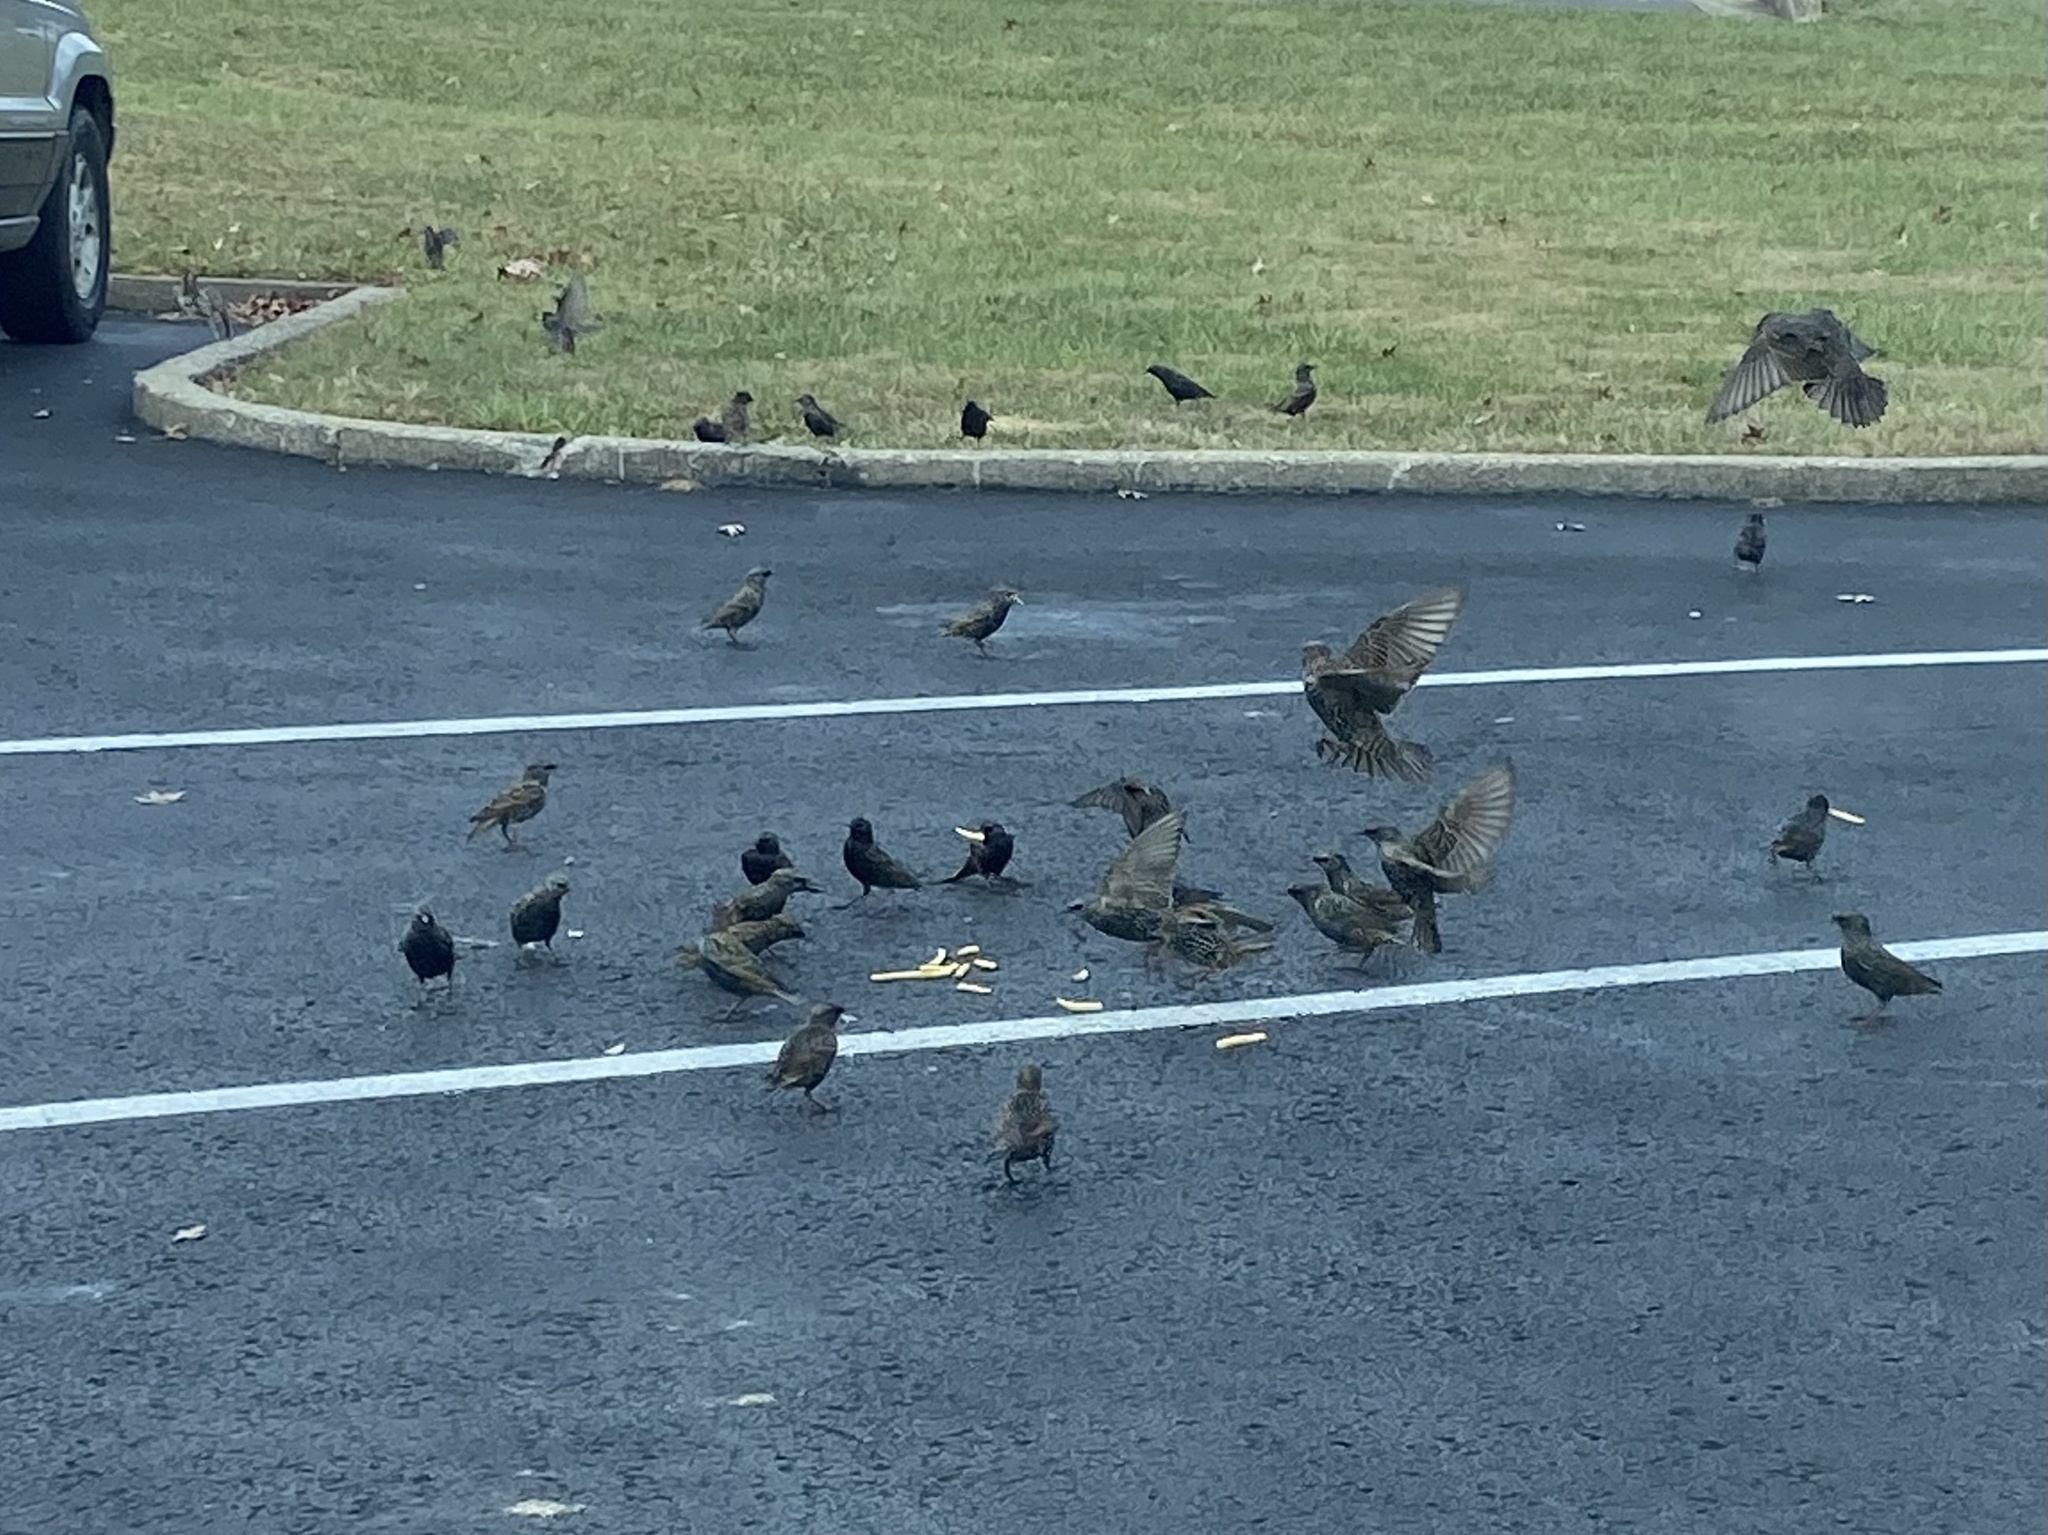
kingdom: Animalia
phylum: Chordata
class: Aves
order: Passeriformes
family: Sturnidae
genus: Sturnus
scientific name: Sturnus vulgaris
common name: Common starling
